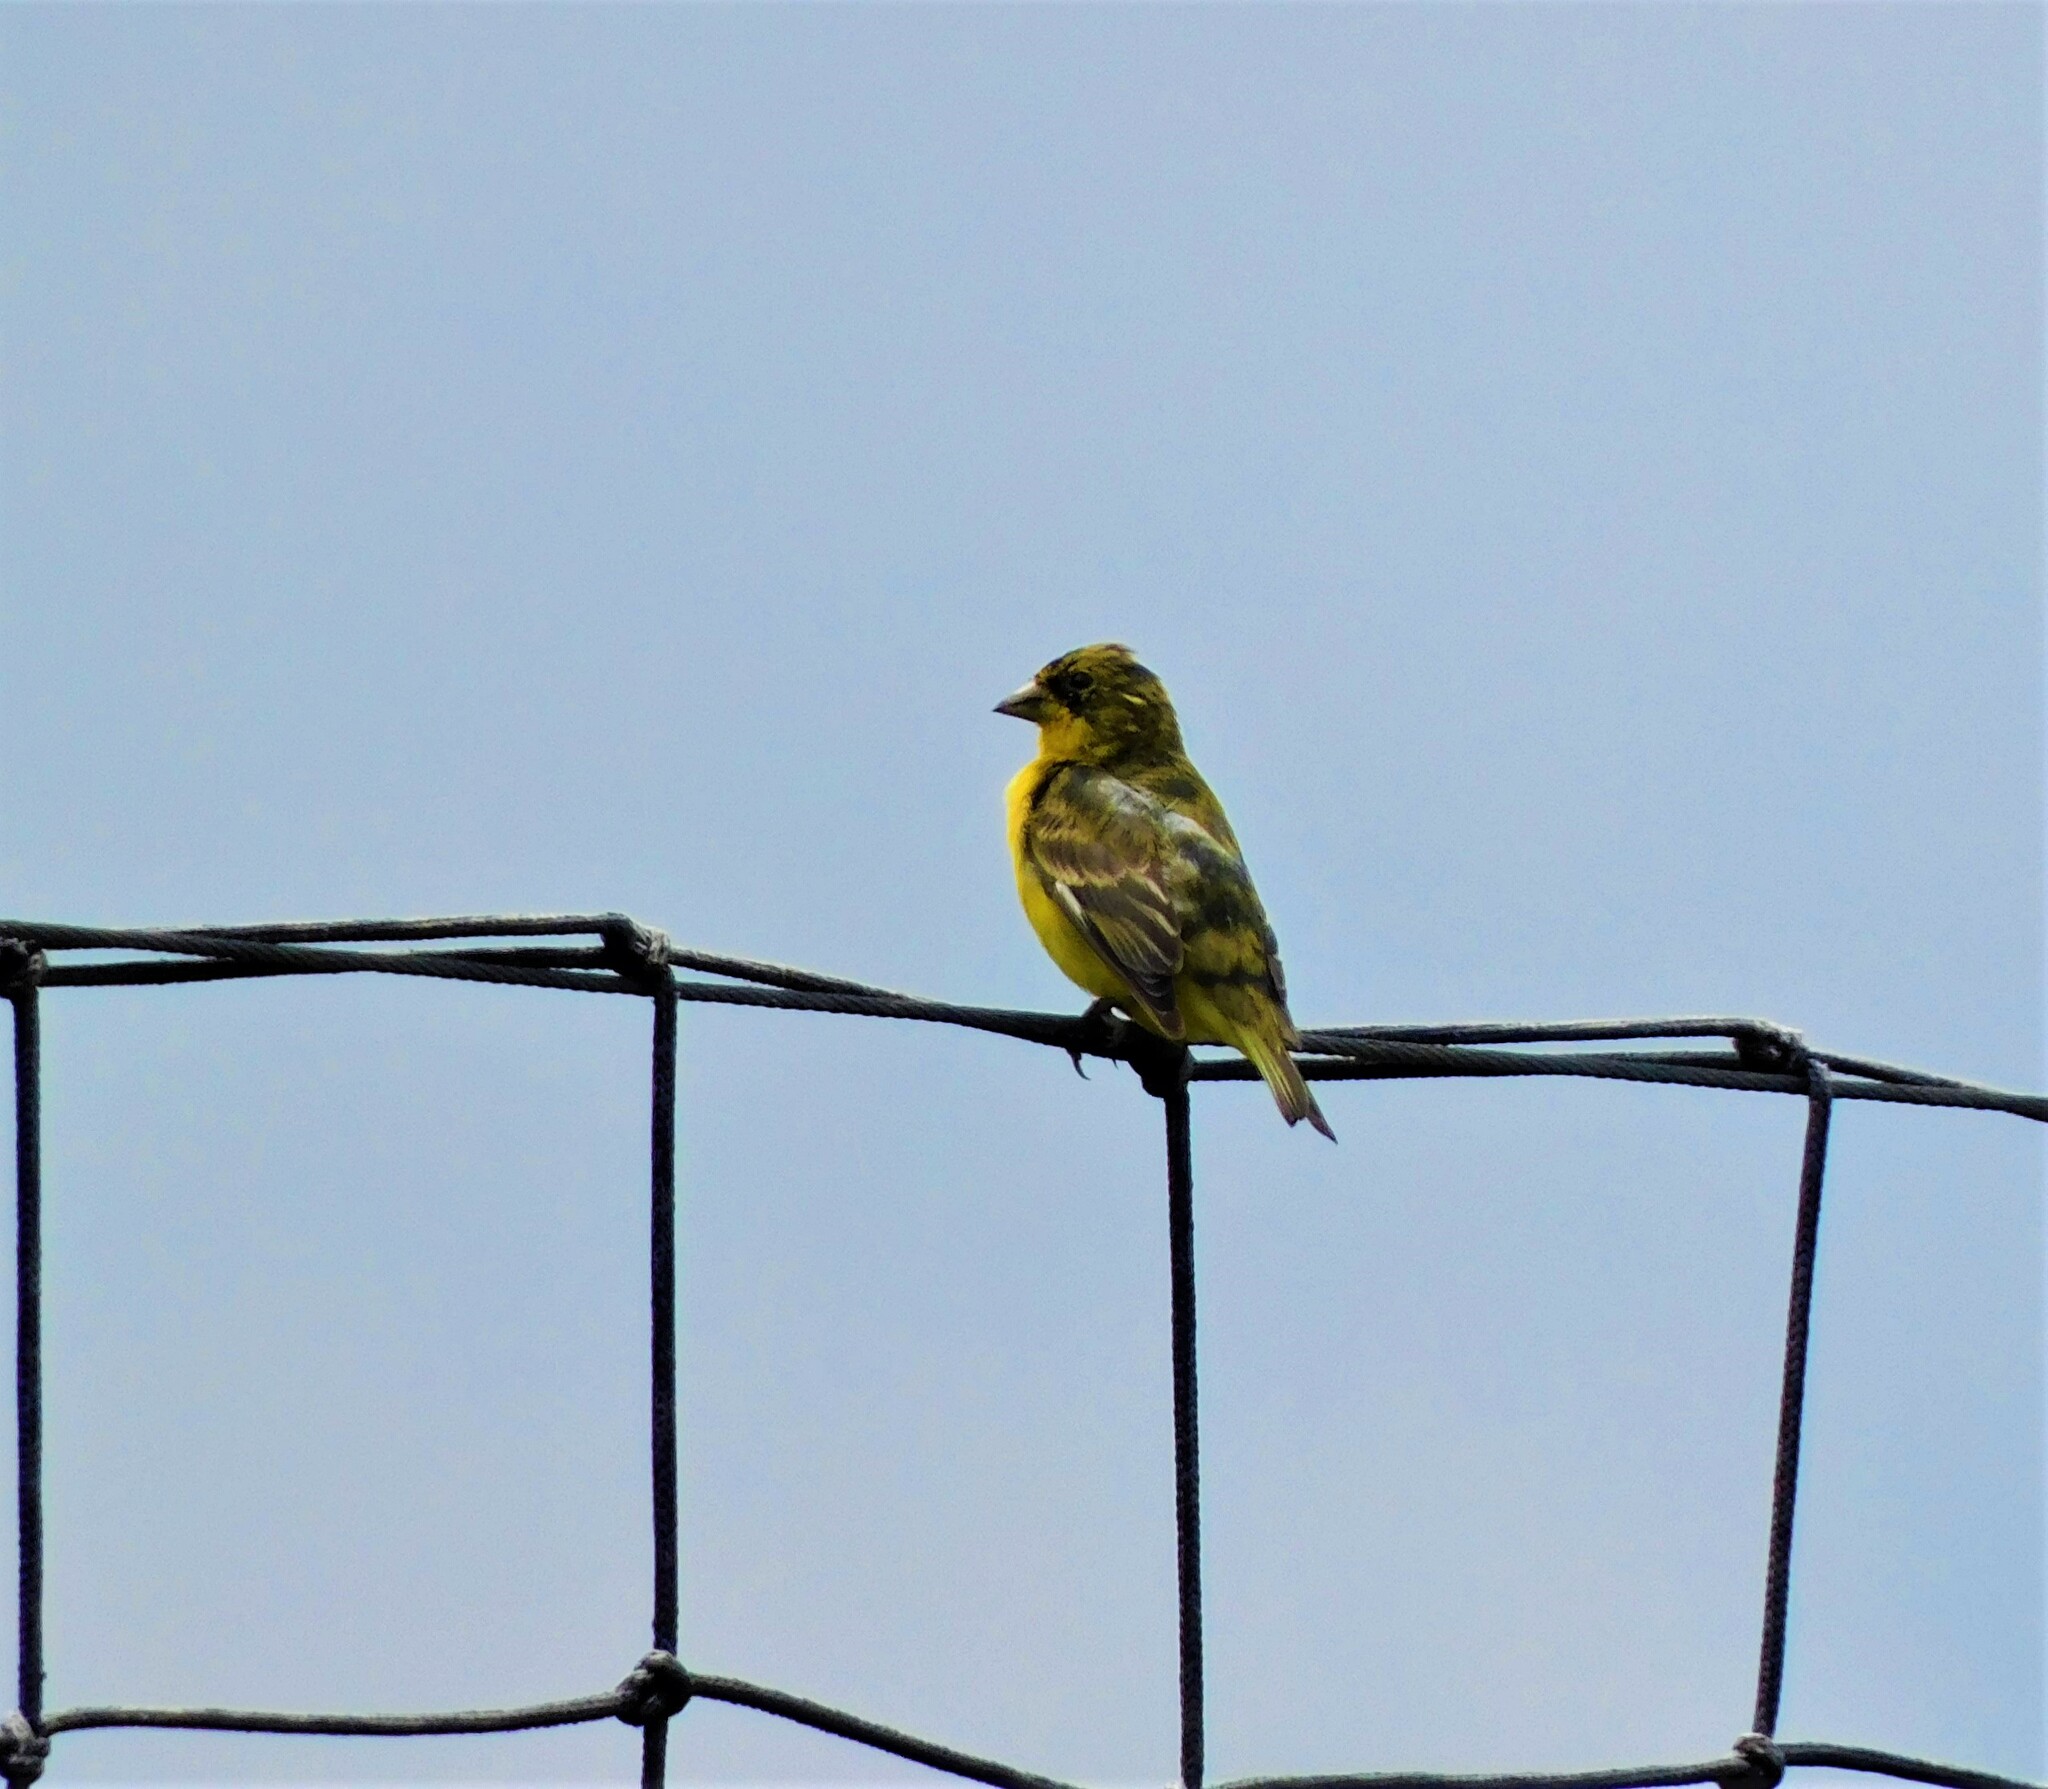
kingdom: Animalia
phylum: Chordata
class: Aves
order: Passeriformes
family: Fringillidae
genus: Spinus
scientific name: Spinus psaltria
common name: Lesser goldfinch
